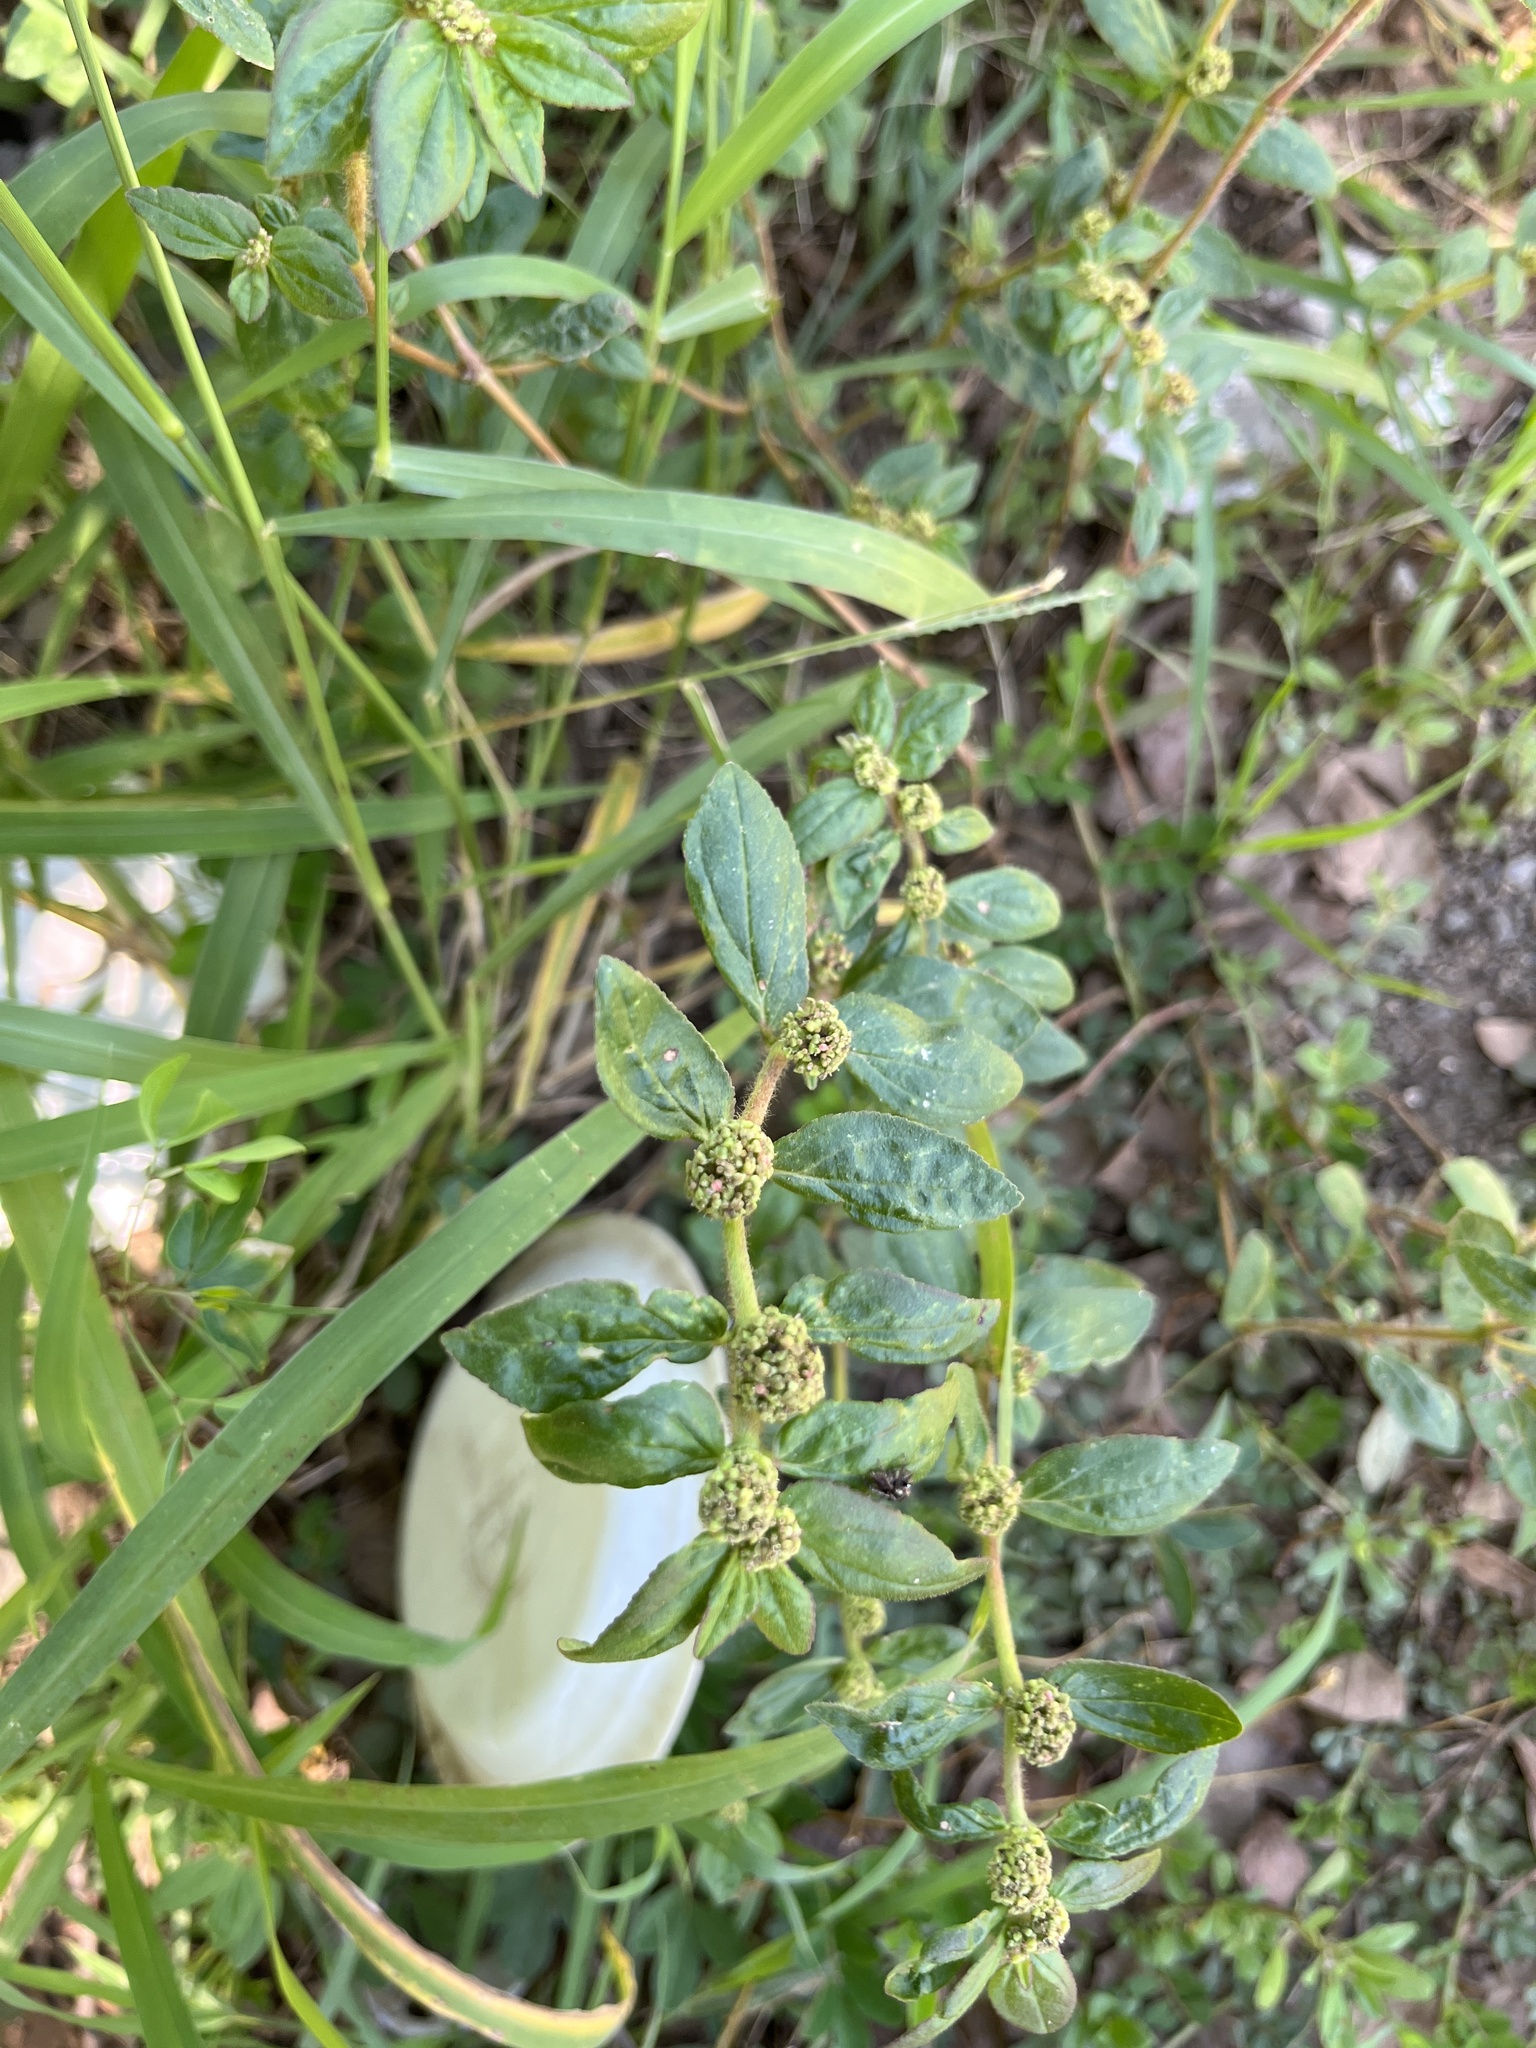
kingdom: Plantae
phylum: Tracheophyta
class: Magnoliopsida
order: Malpighiales
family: Euphorbiaceae
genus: Euphorbia
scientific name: Euphorbia hirta
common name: Pillpod sandmat
